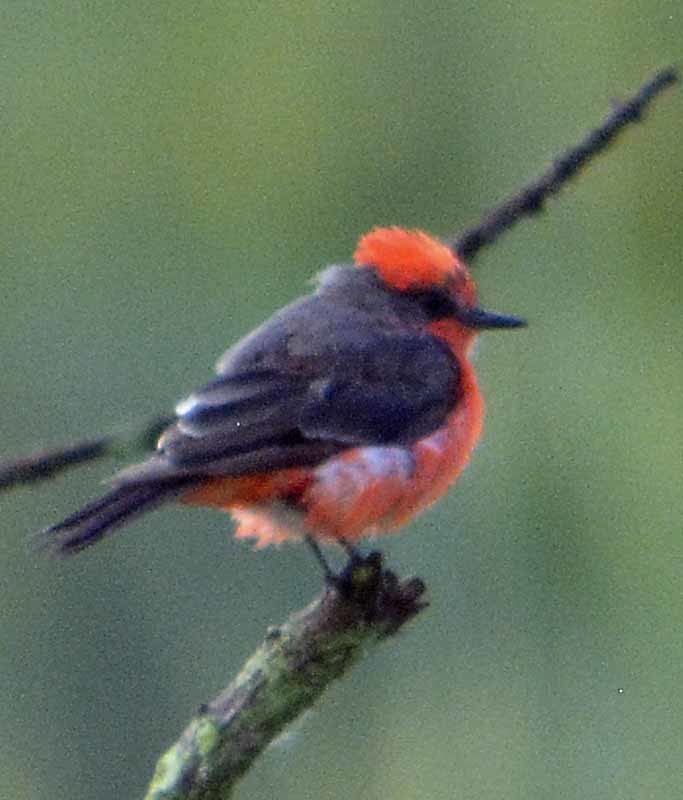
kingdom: Animalia
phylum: Chordata
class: Aves
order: Passeriformes
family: Tyrannidae
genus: Pyrocephalus
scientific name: Pyrocephalus rubinus
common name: Vermilion flycatcher
